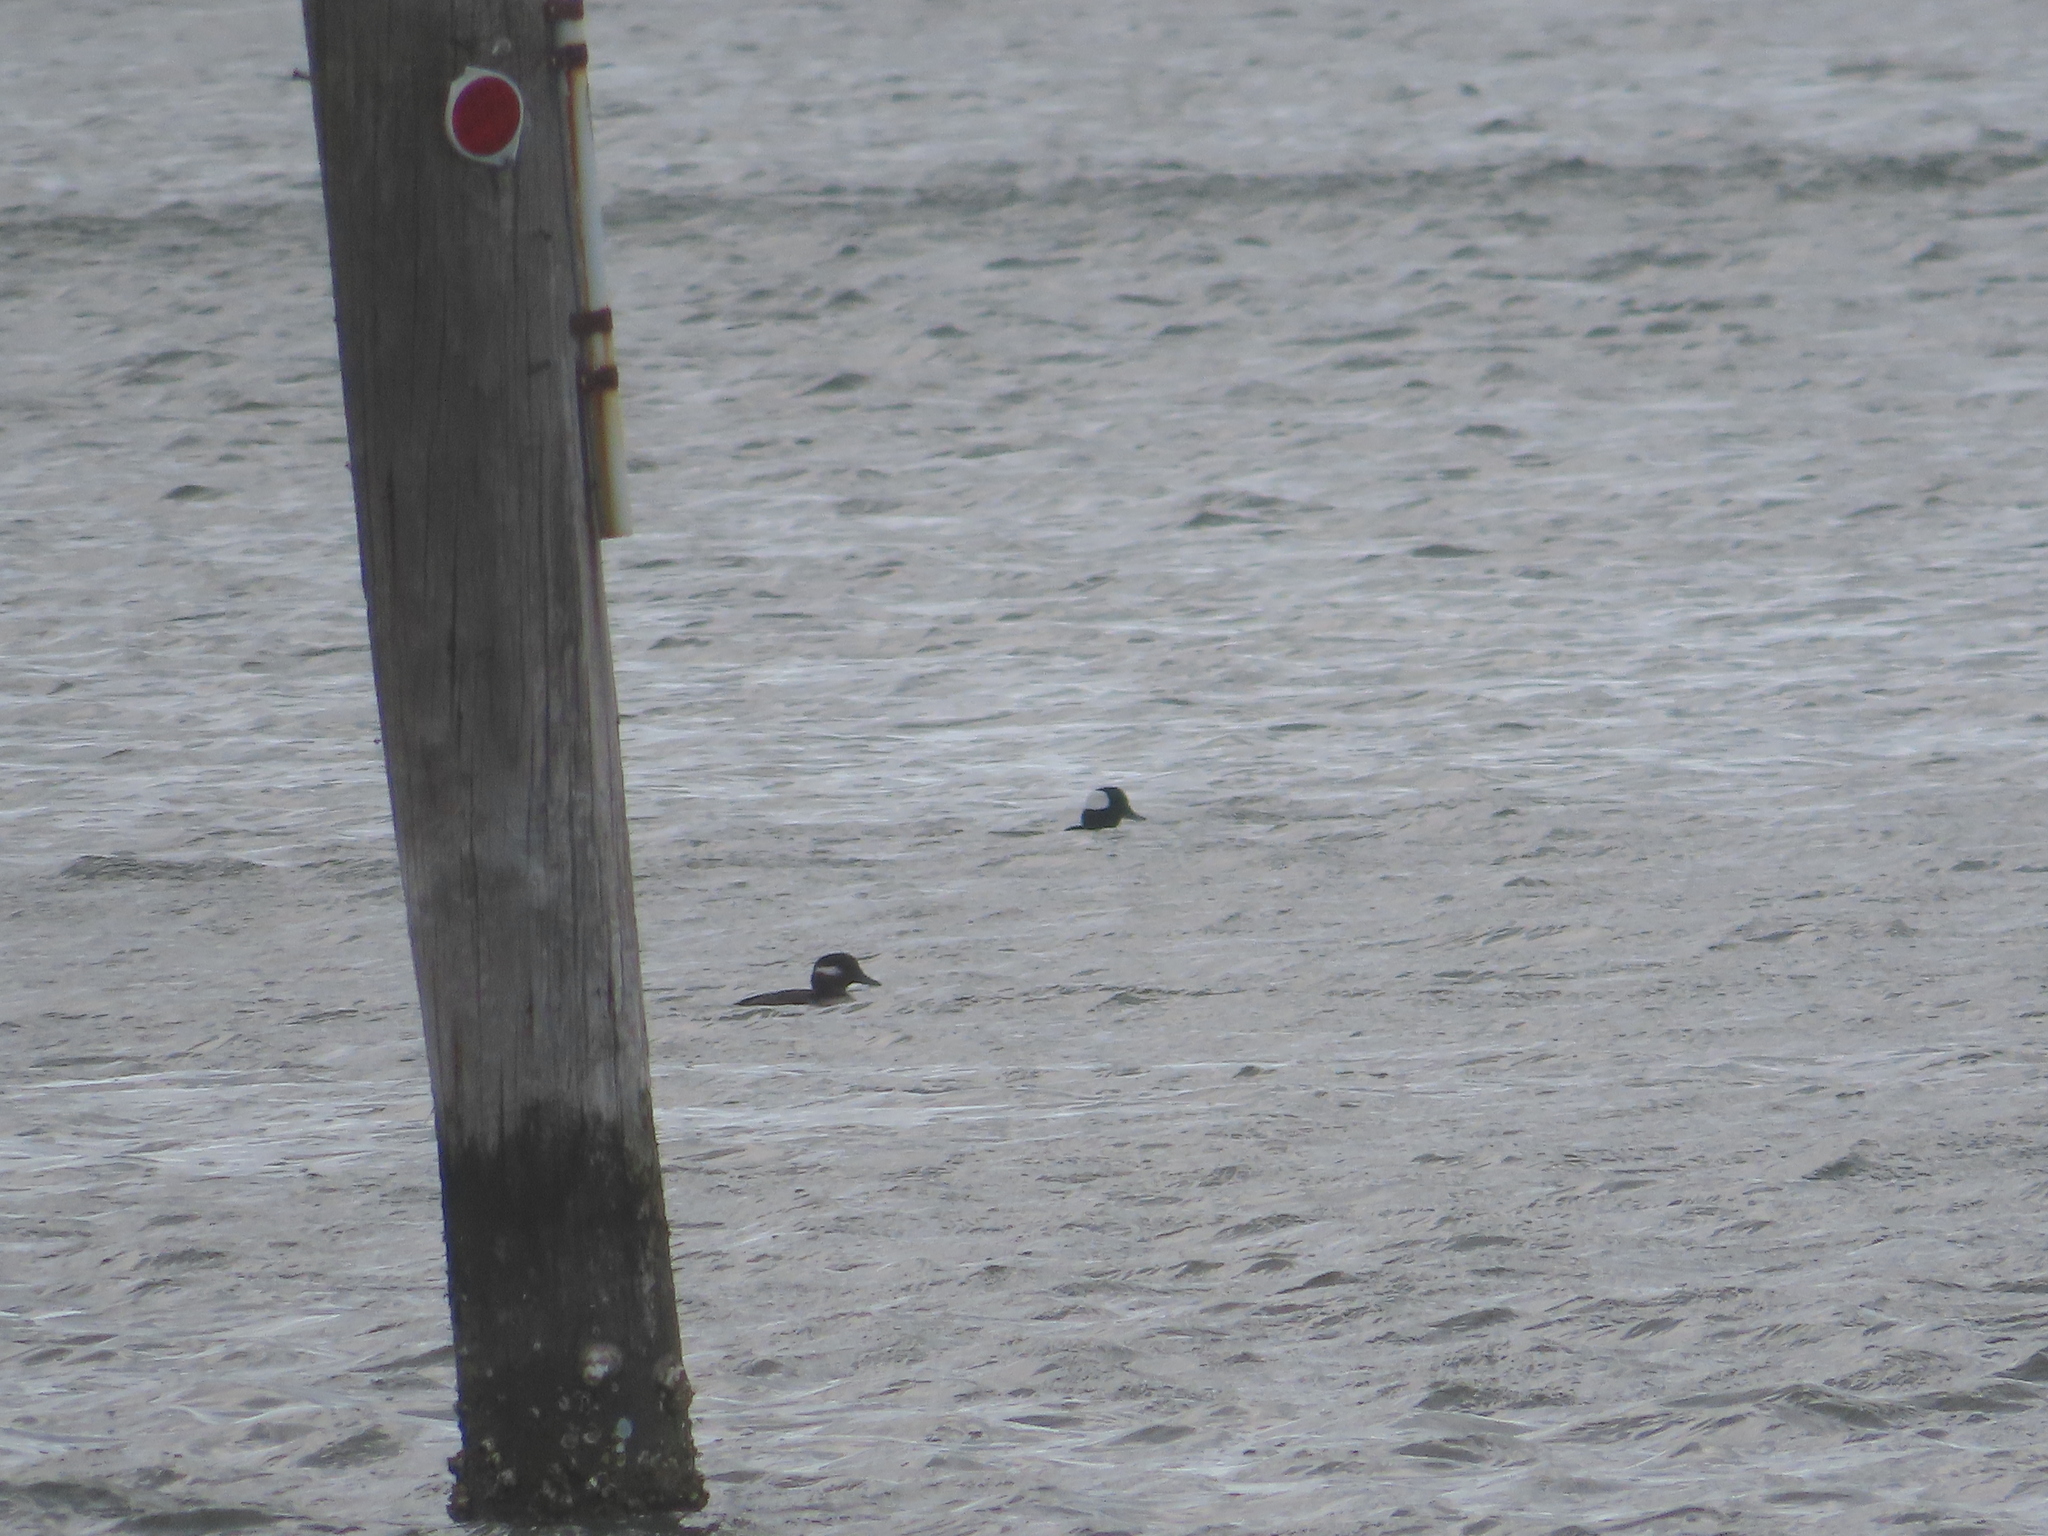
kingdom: Animalia
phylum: Chordata
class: Aves
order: Anseriformes
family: Anatidae
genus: Bucephala
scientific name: Bucephala albeola
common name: Bufflehead
